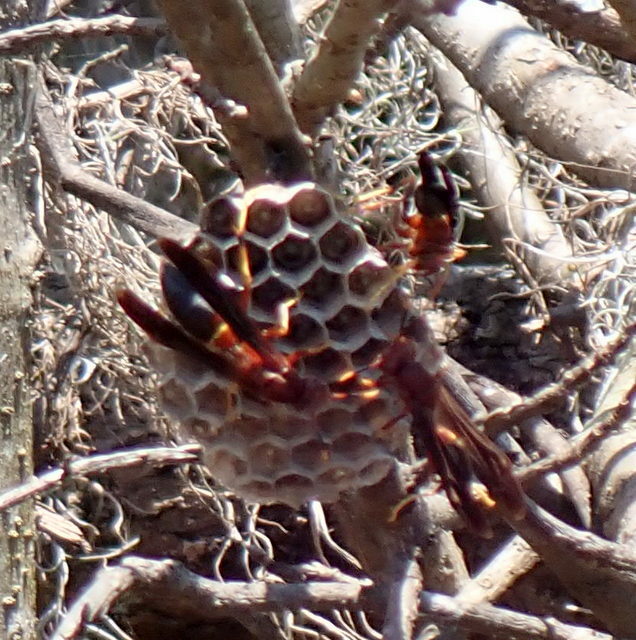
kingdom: Animalia
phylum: Arthropoda
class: Insecta
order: Hymenoptera
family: Eumenidae
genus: Polistes
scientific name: Polistes annularis
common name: Ringed paper wasp
